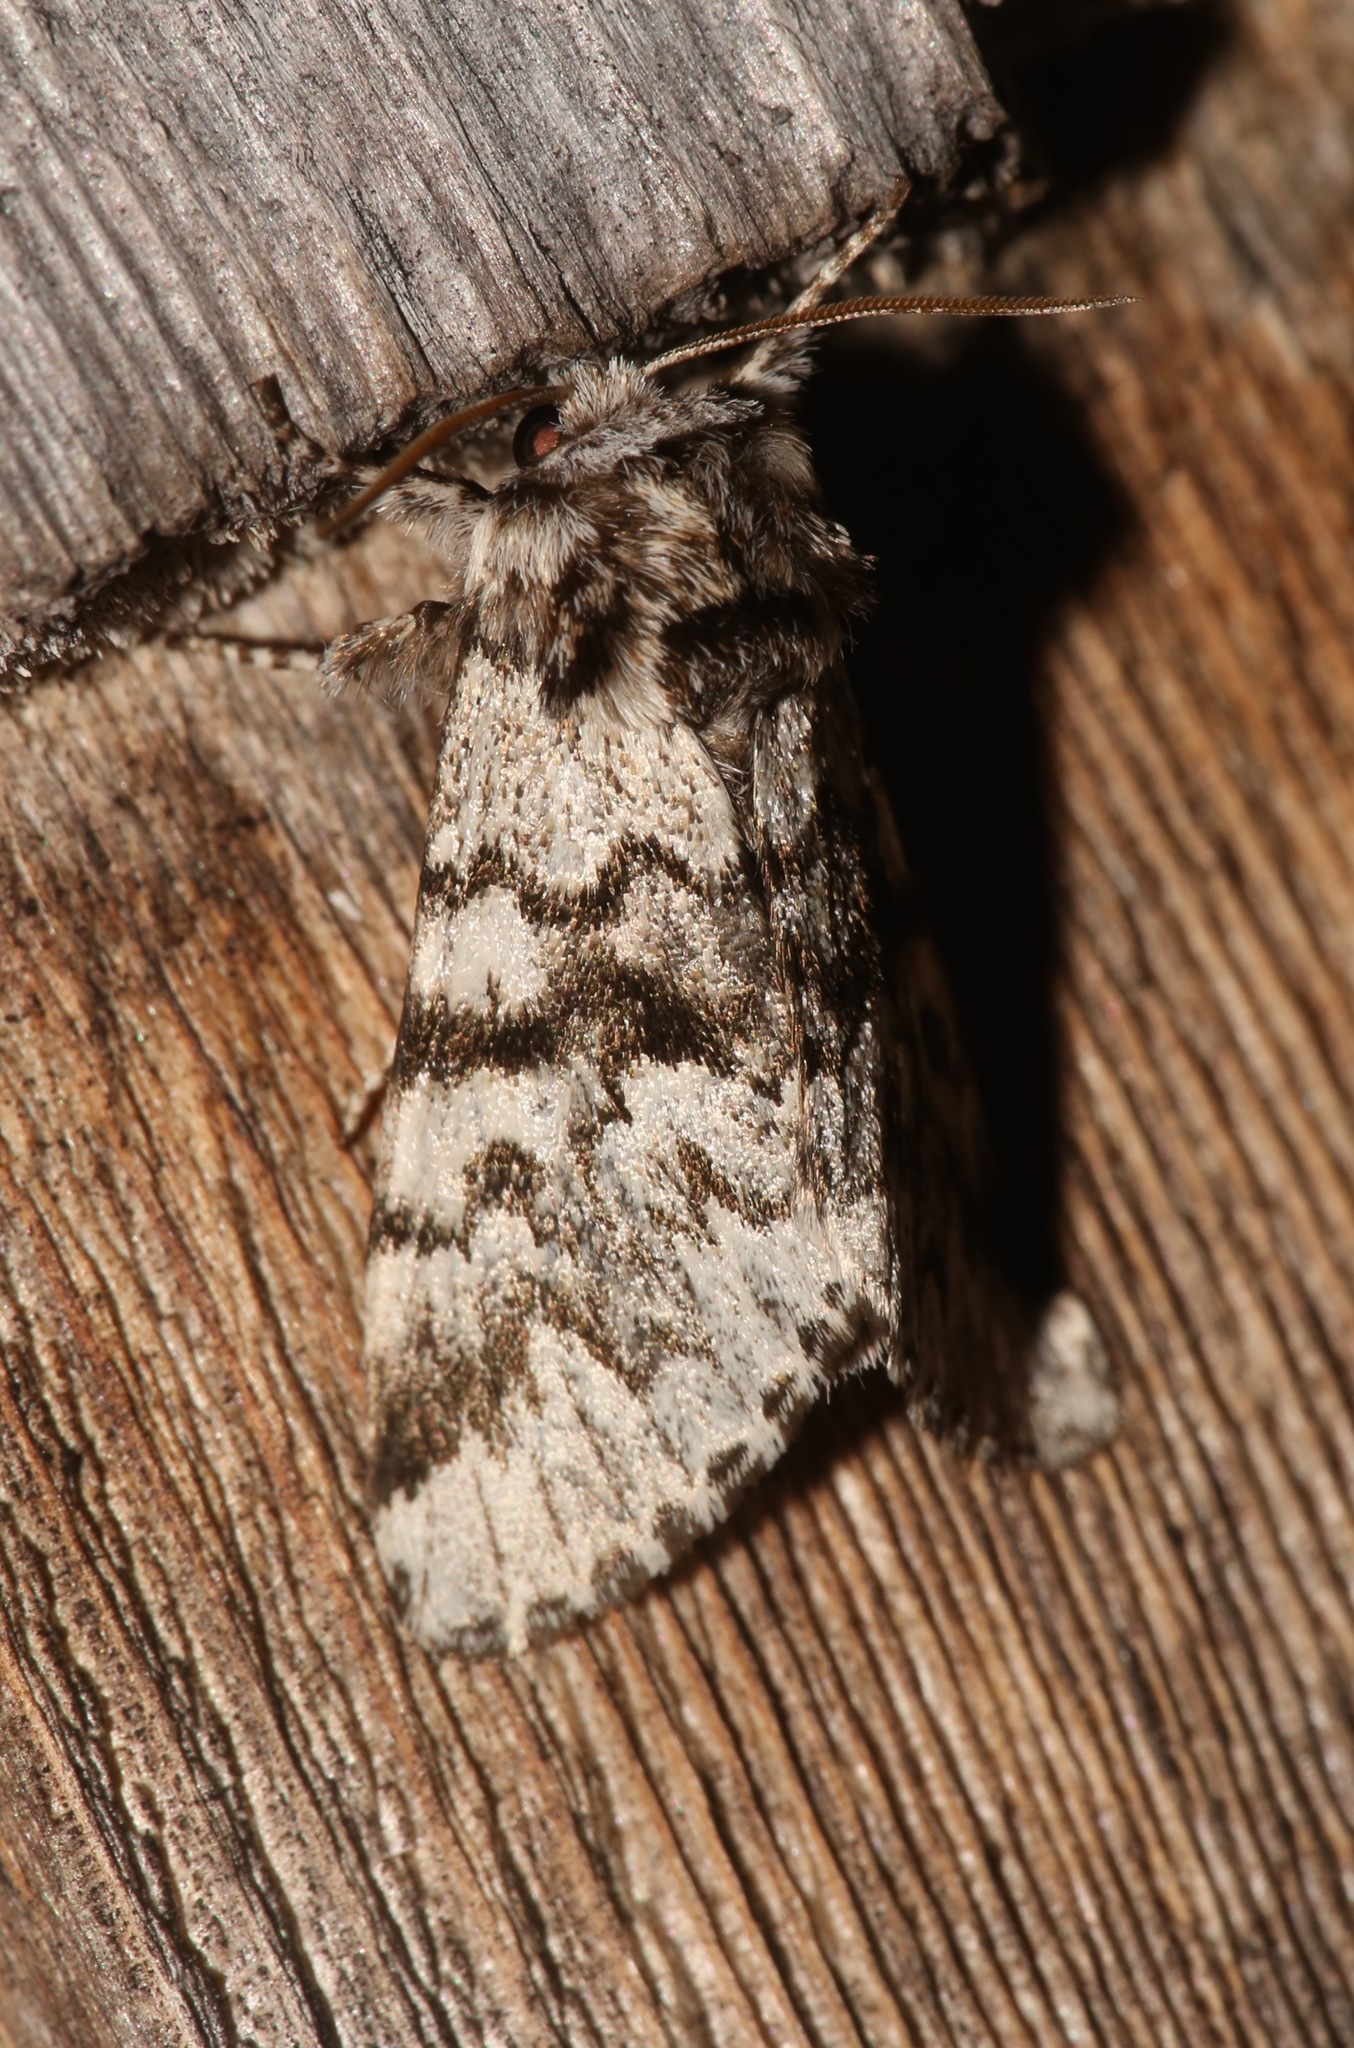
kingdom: Animalia
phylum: Arthropoda
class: Insecta
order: Lepidoptera
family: Noctuidae
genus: Panthea
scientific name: Panthea acronyctoides
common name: Black zigzag moth
